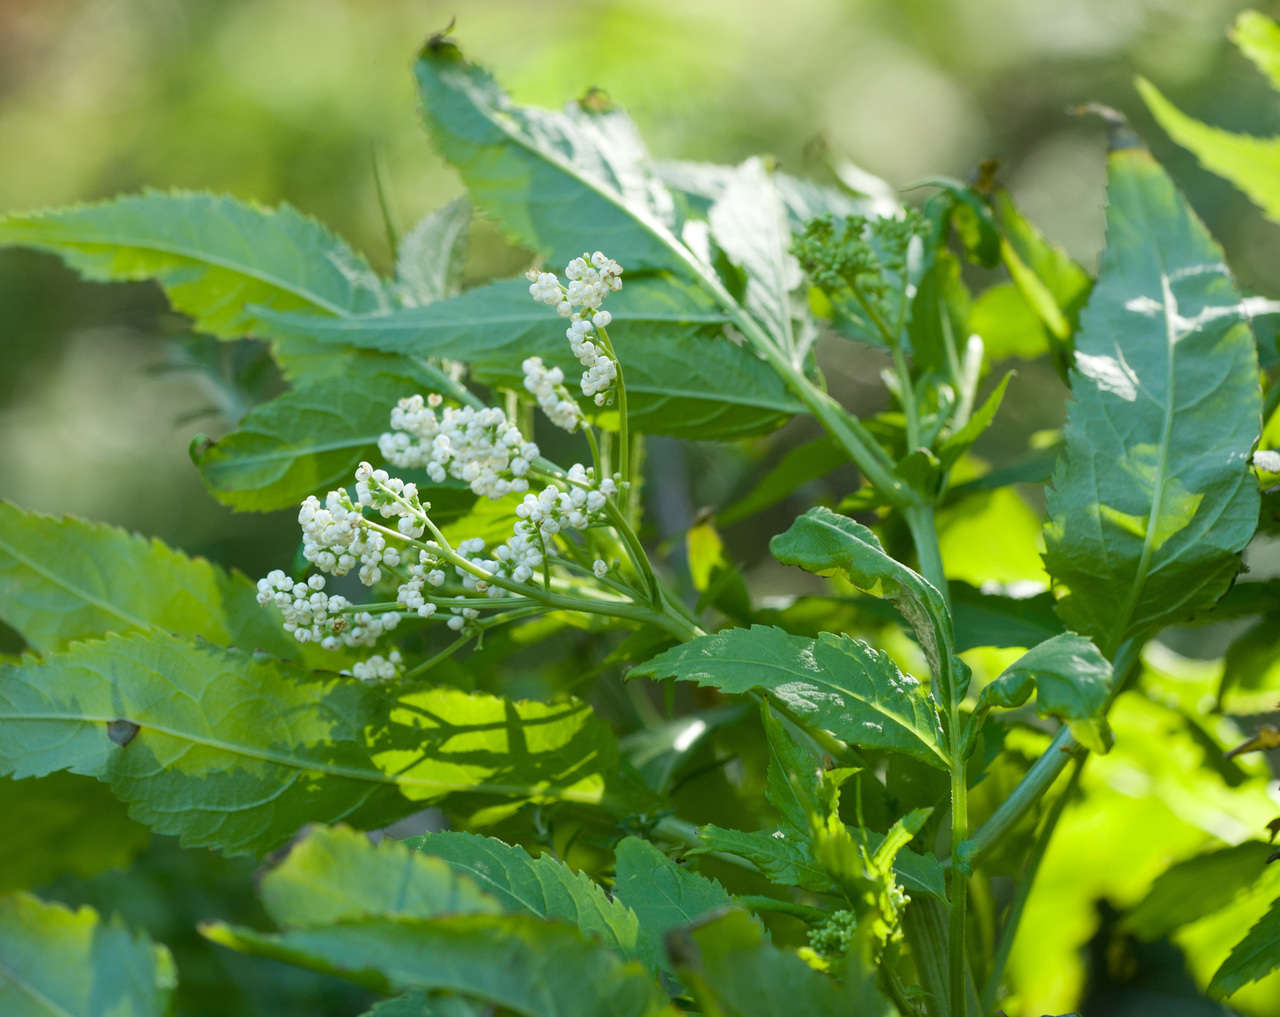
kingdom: Plantae
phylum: Tracheophyta
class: Magnoliopsida
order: Dipsacales
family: Viburnaceae
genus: Sambucus
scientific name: Sambucus gaudichaudiana
